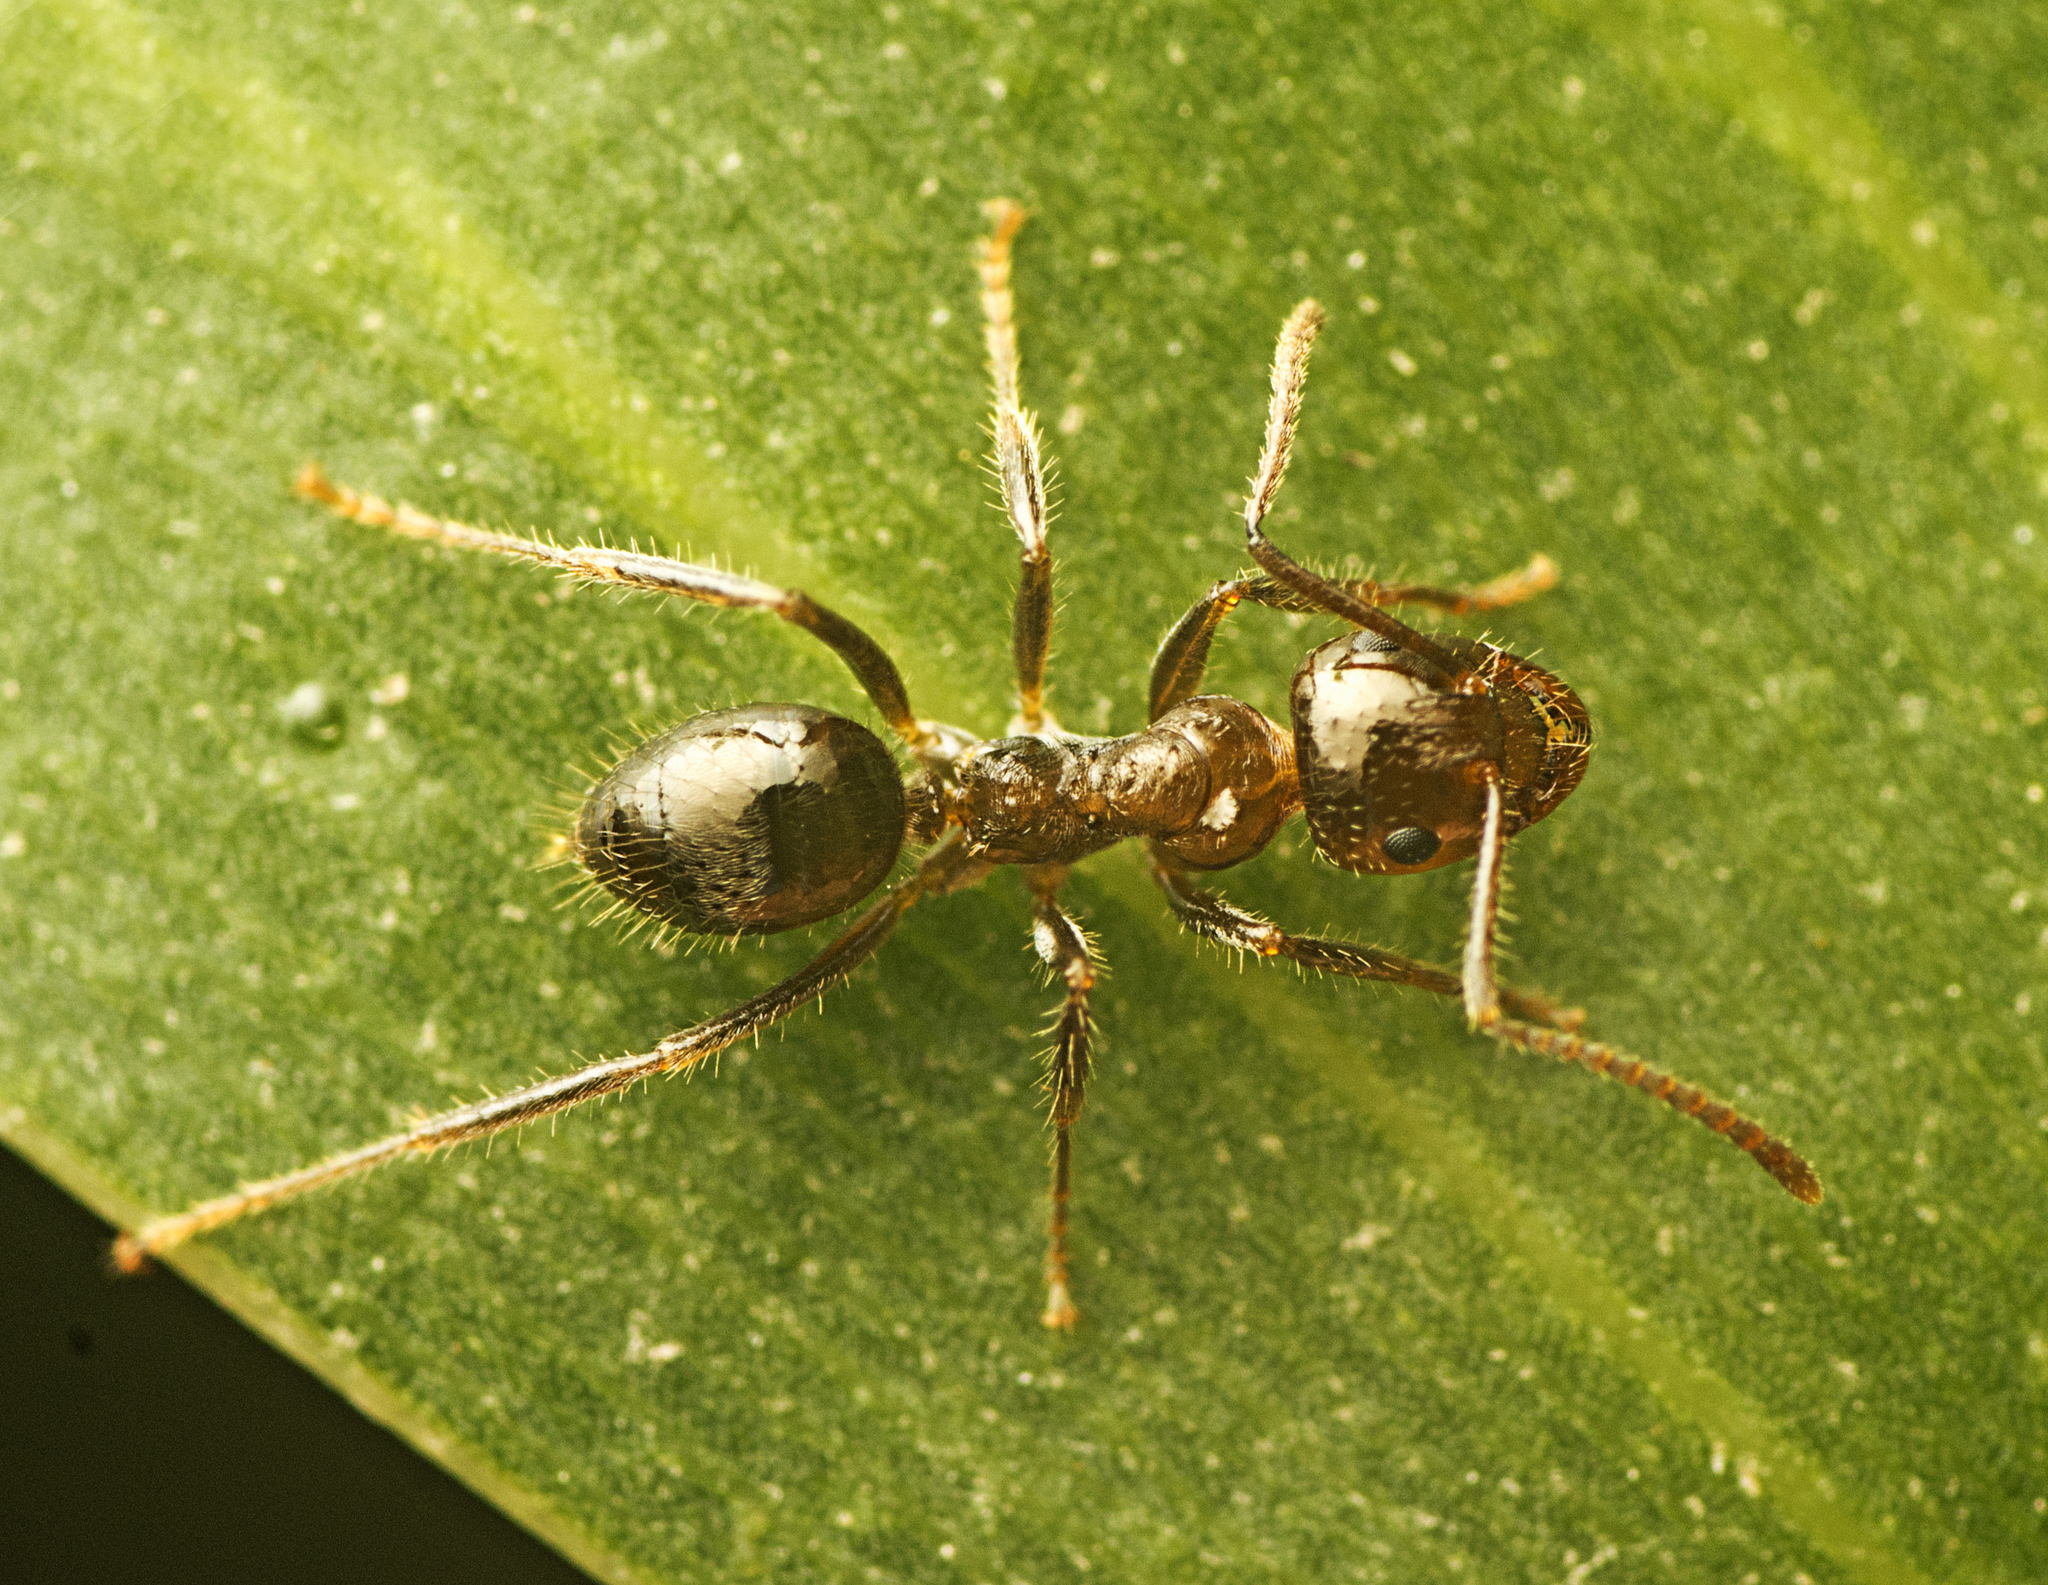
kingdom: Animalia
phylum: Arthropoda
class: Insecta
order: Hymenoptera
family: Formicidae
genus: Notoncus
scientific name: Notoncus capitatus
